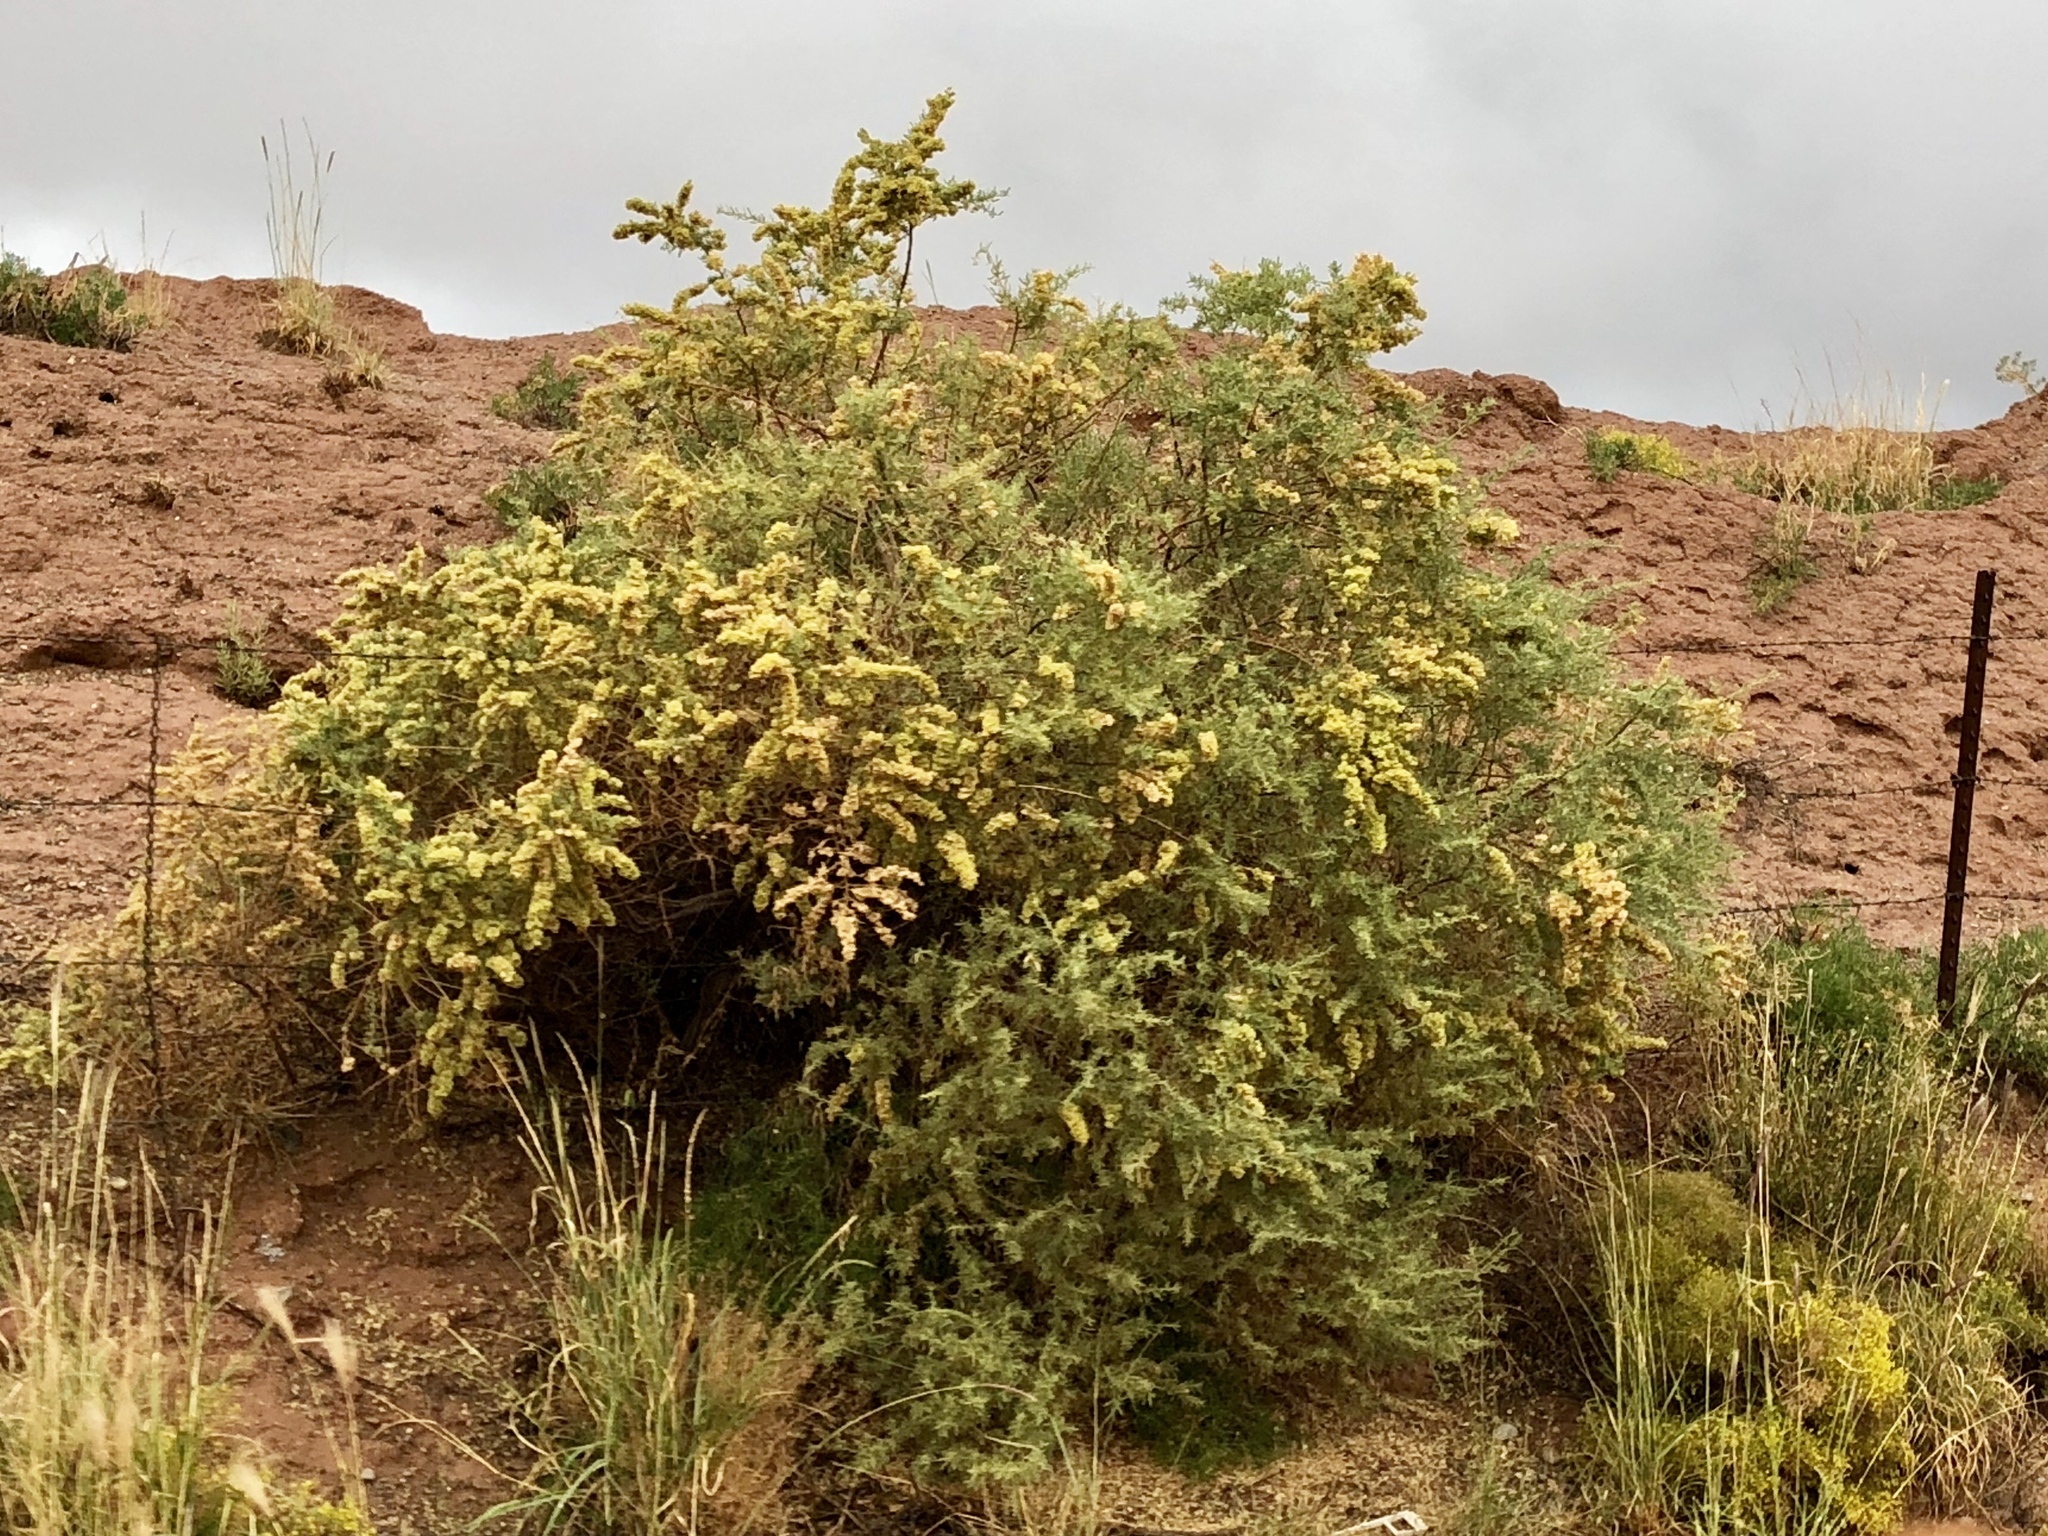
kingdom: Plantae
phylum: Tracheophyta
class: Magnoliopsida
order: Caryophyllales
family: Amaranthaceae
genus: Atriplex
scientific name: Atriplex canescens
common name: Four-wing saltbush
